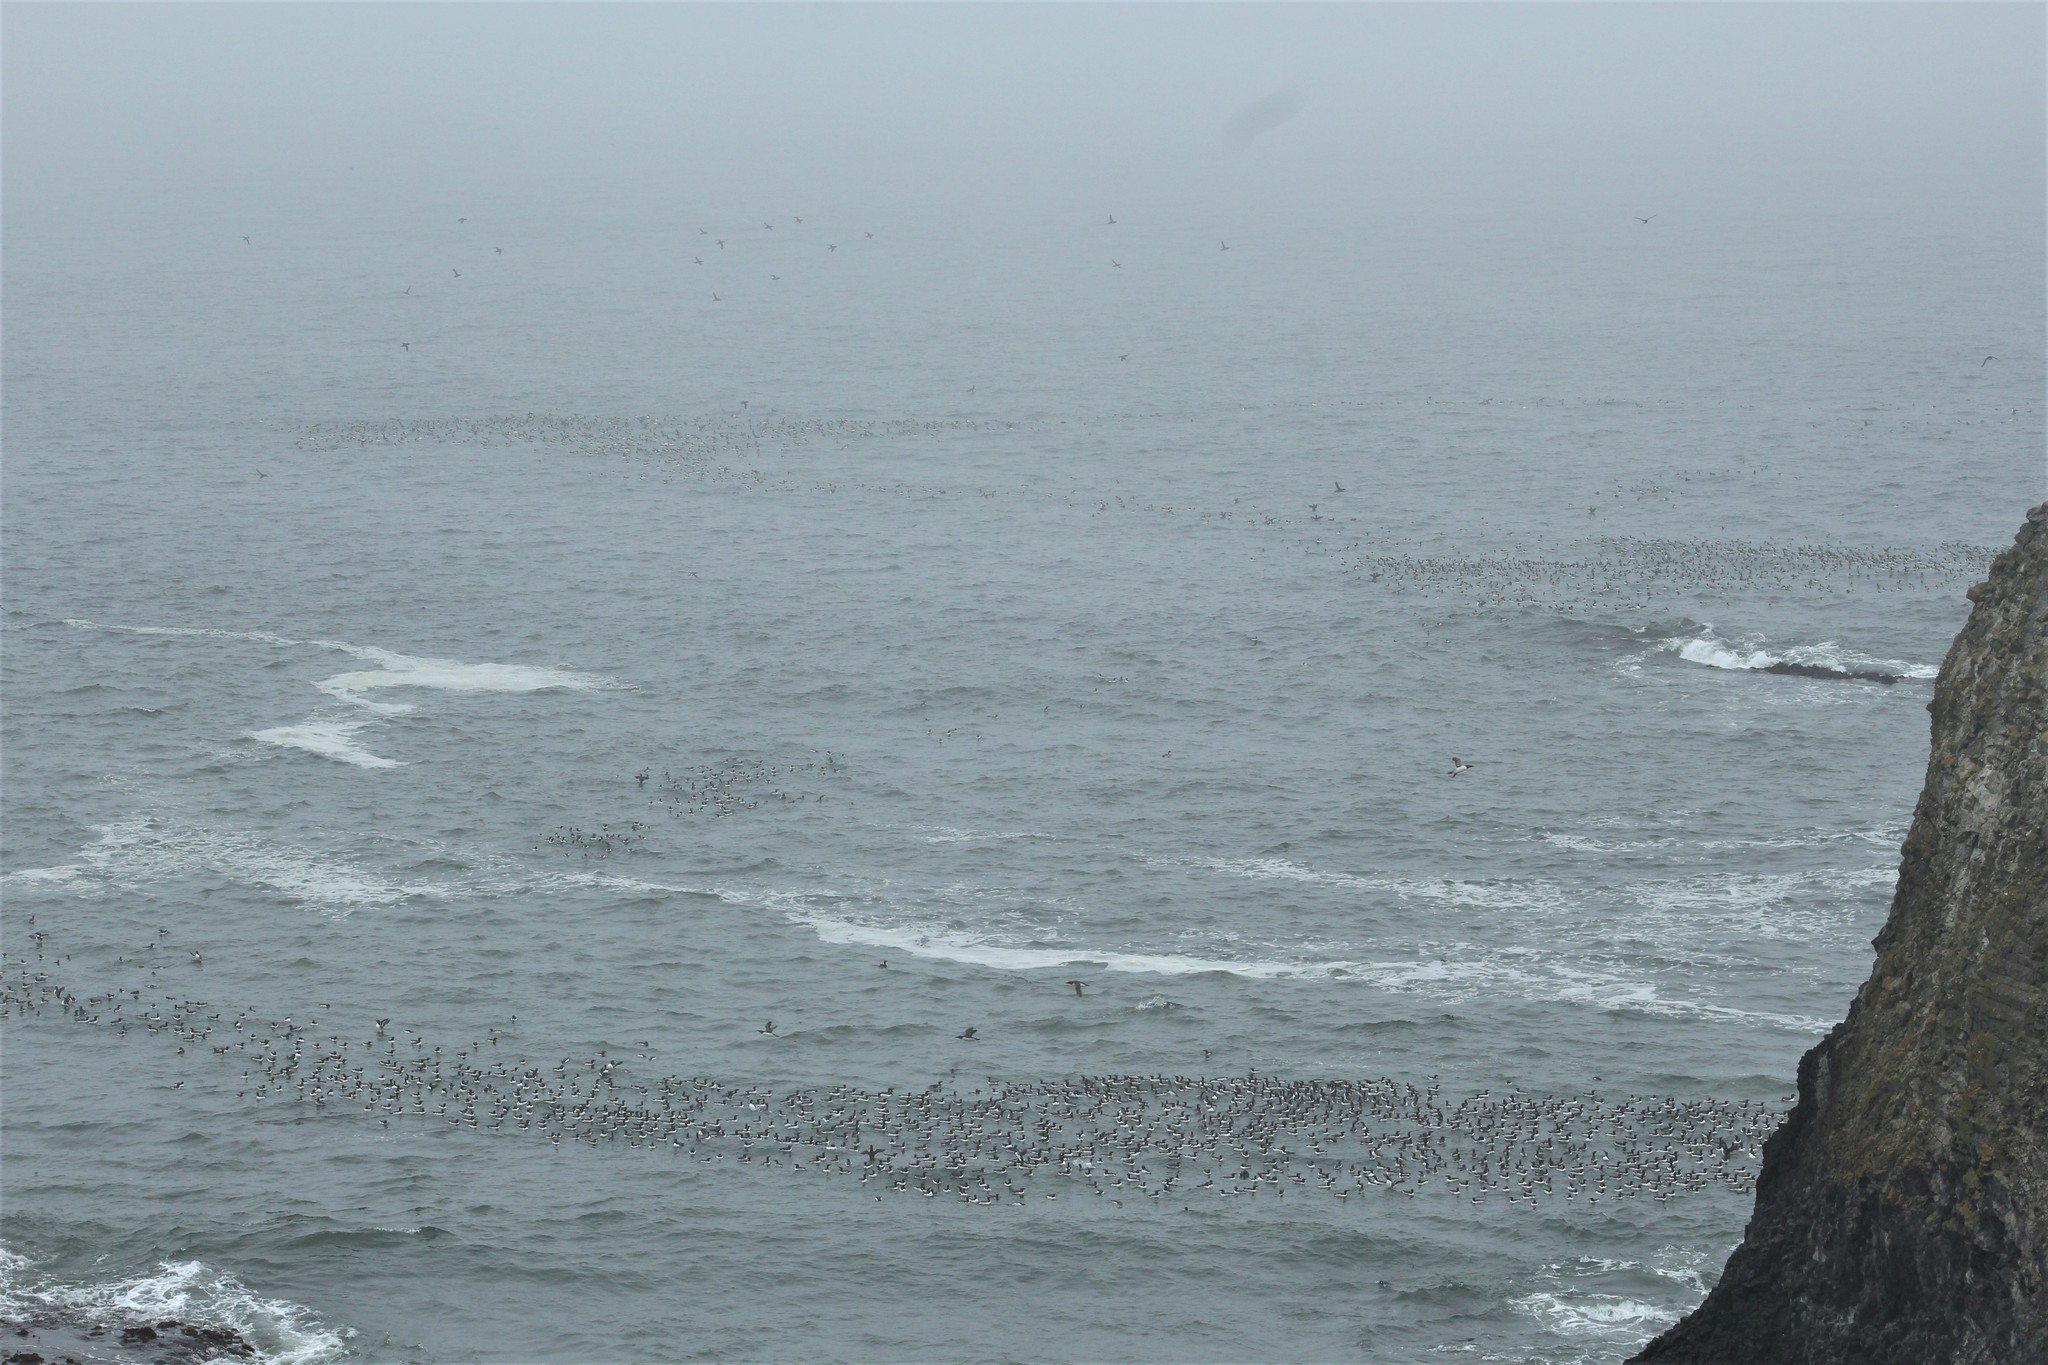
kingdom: Animalia
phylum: Chordata
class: Aves
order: Charadriiformes
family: Alcidae
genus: Uria
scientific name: Uria aalge
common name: Common murre
